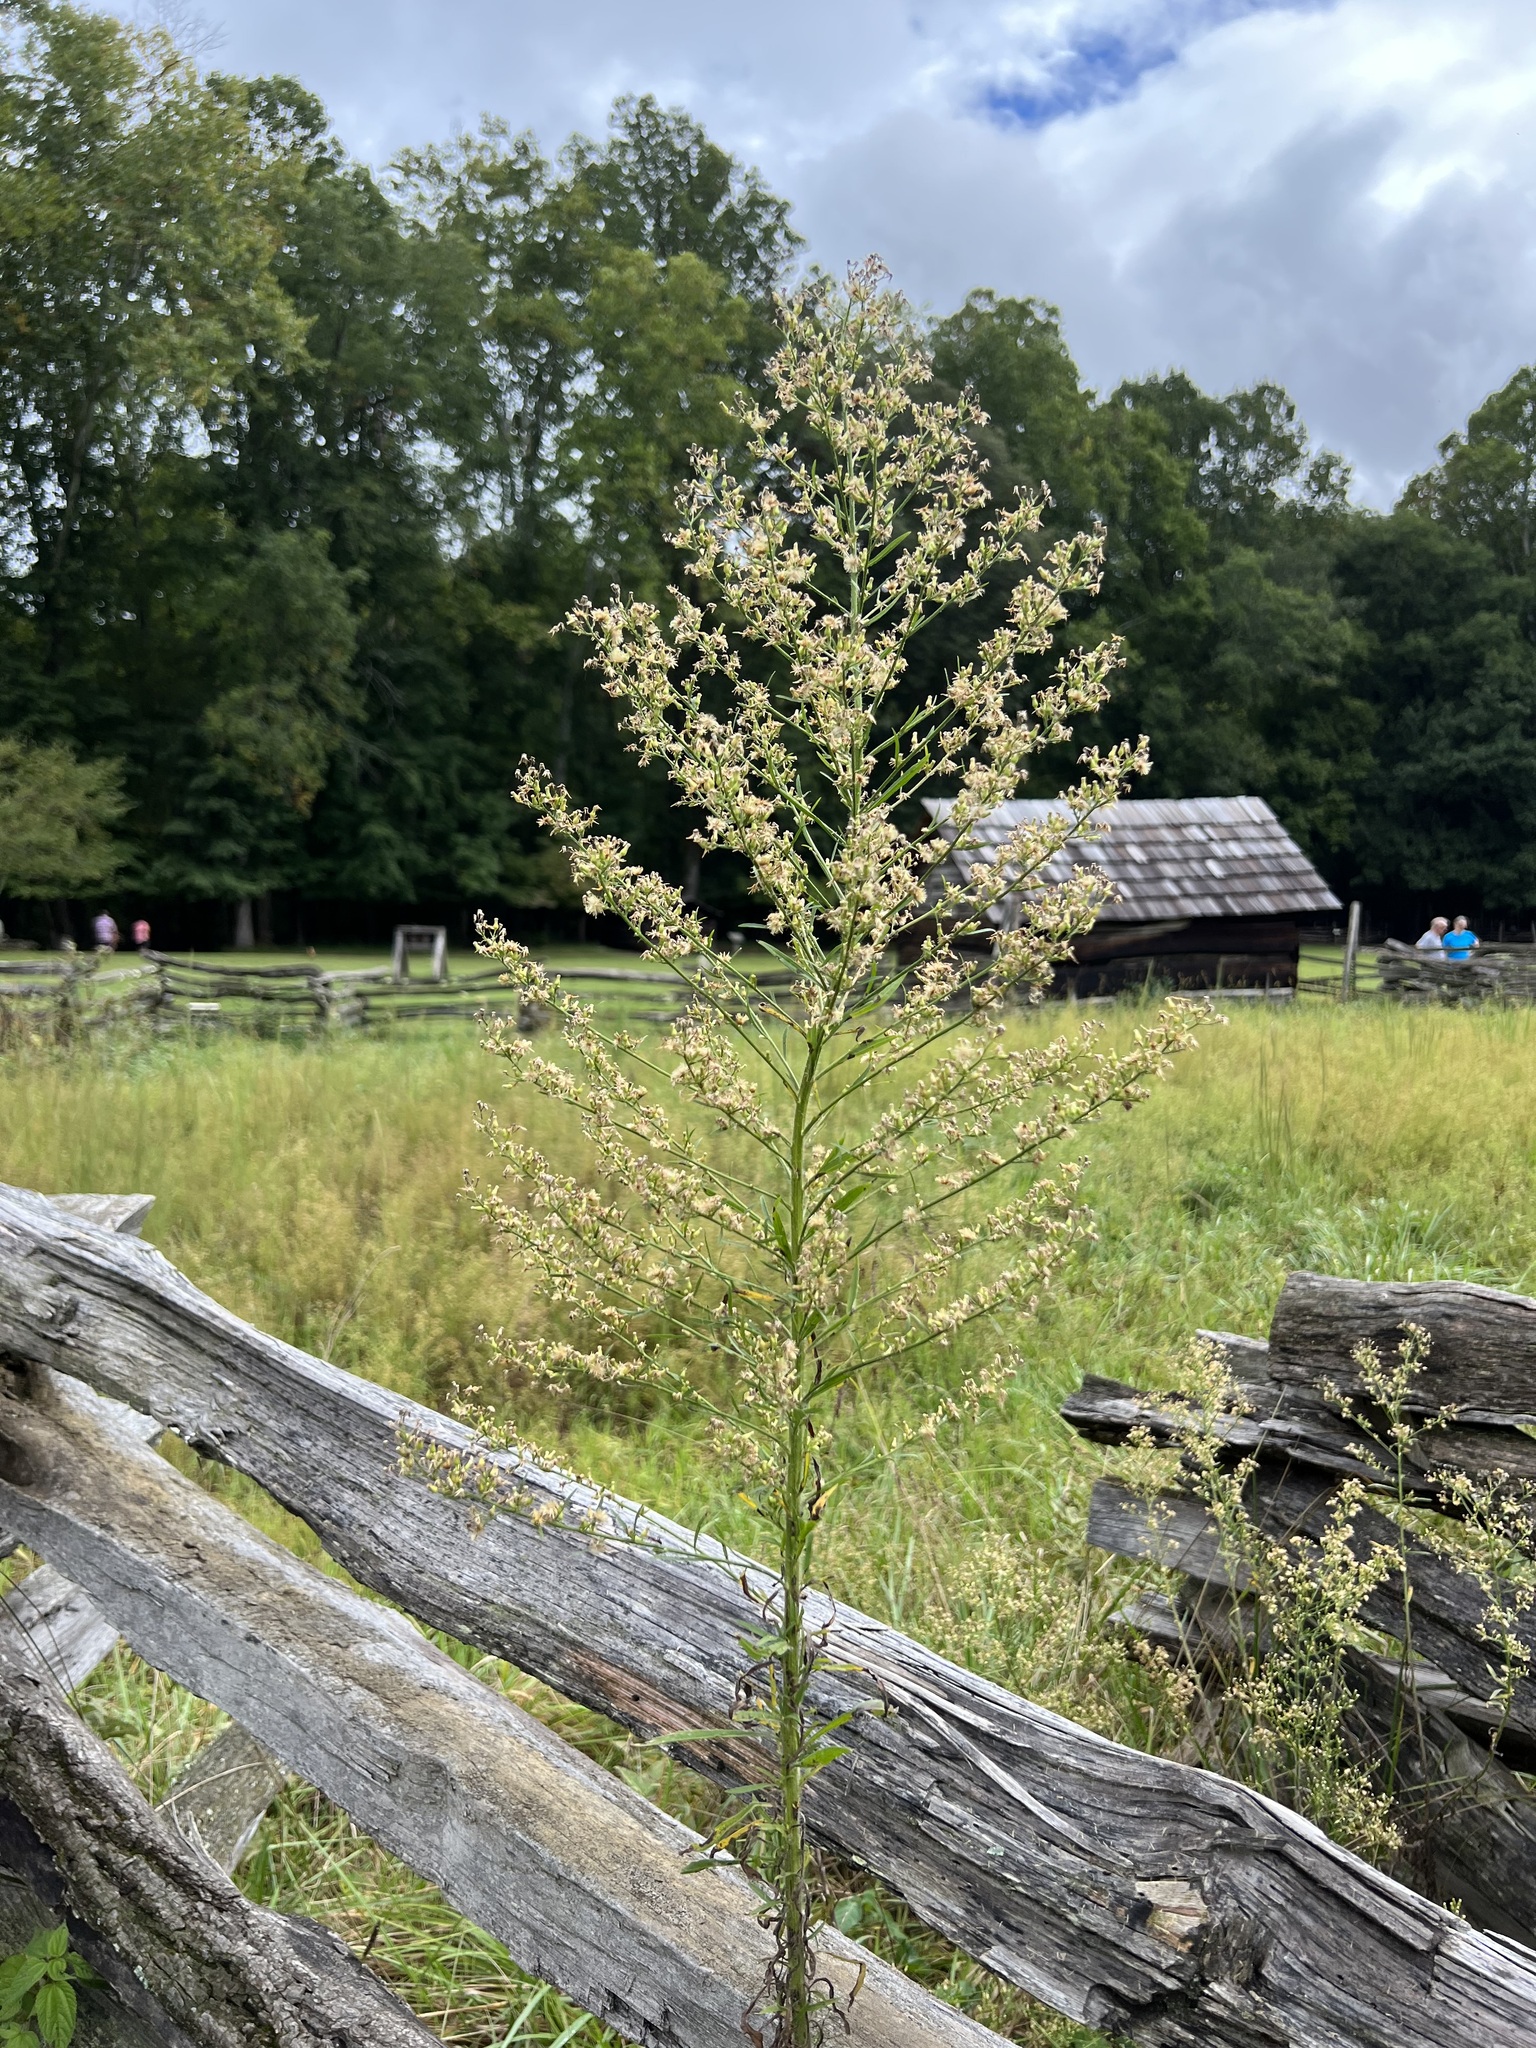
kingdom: Plantae
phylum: Tracheophyta
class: Magnoliopsida
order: Asterales
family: Asteraceae
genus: Erigeron
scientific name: Erigeron canadensis
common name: Canadian fleabane
